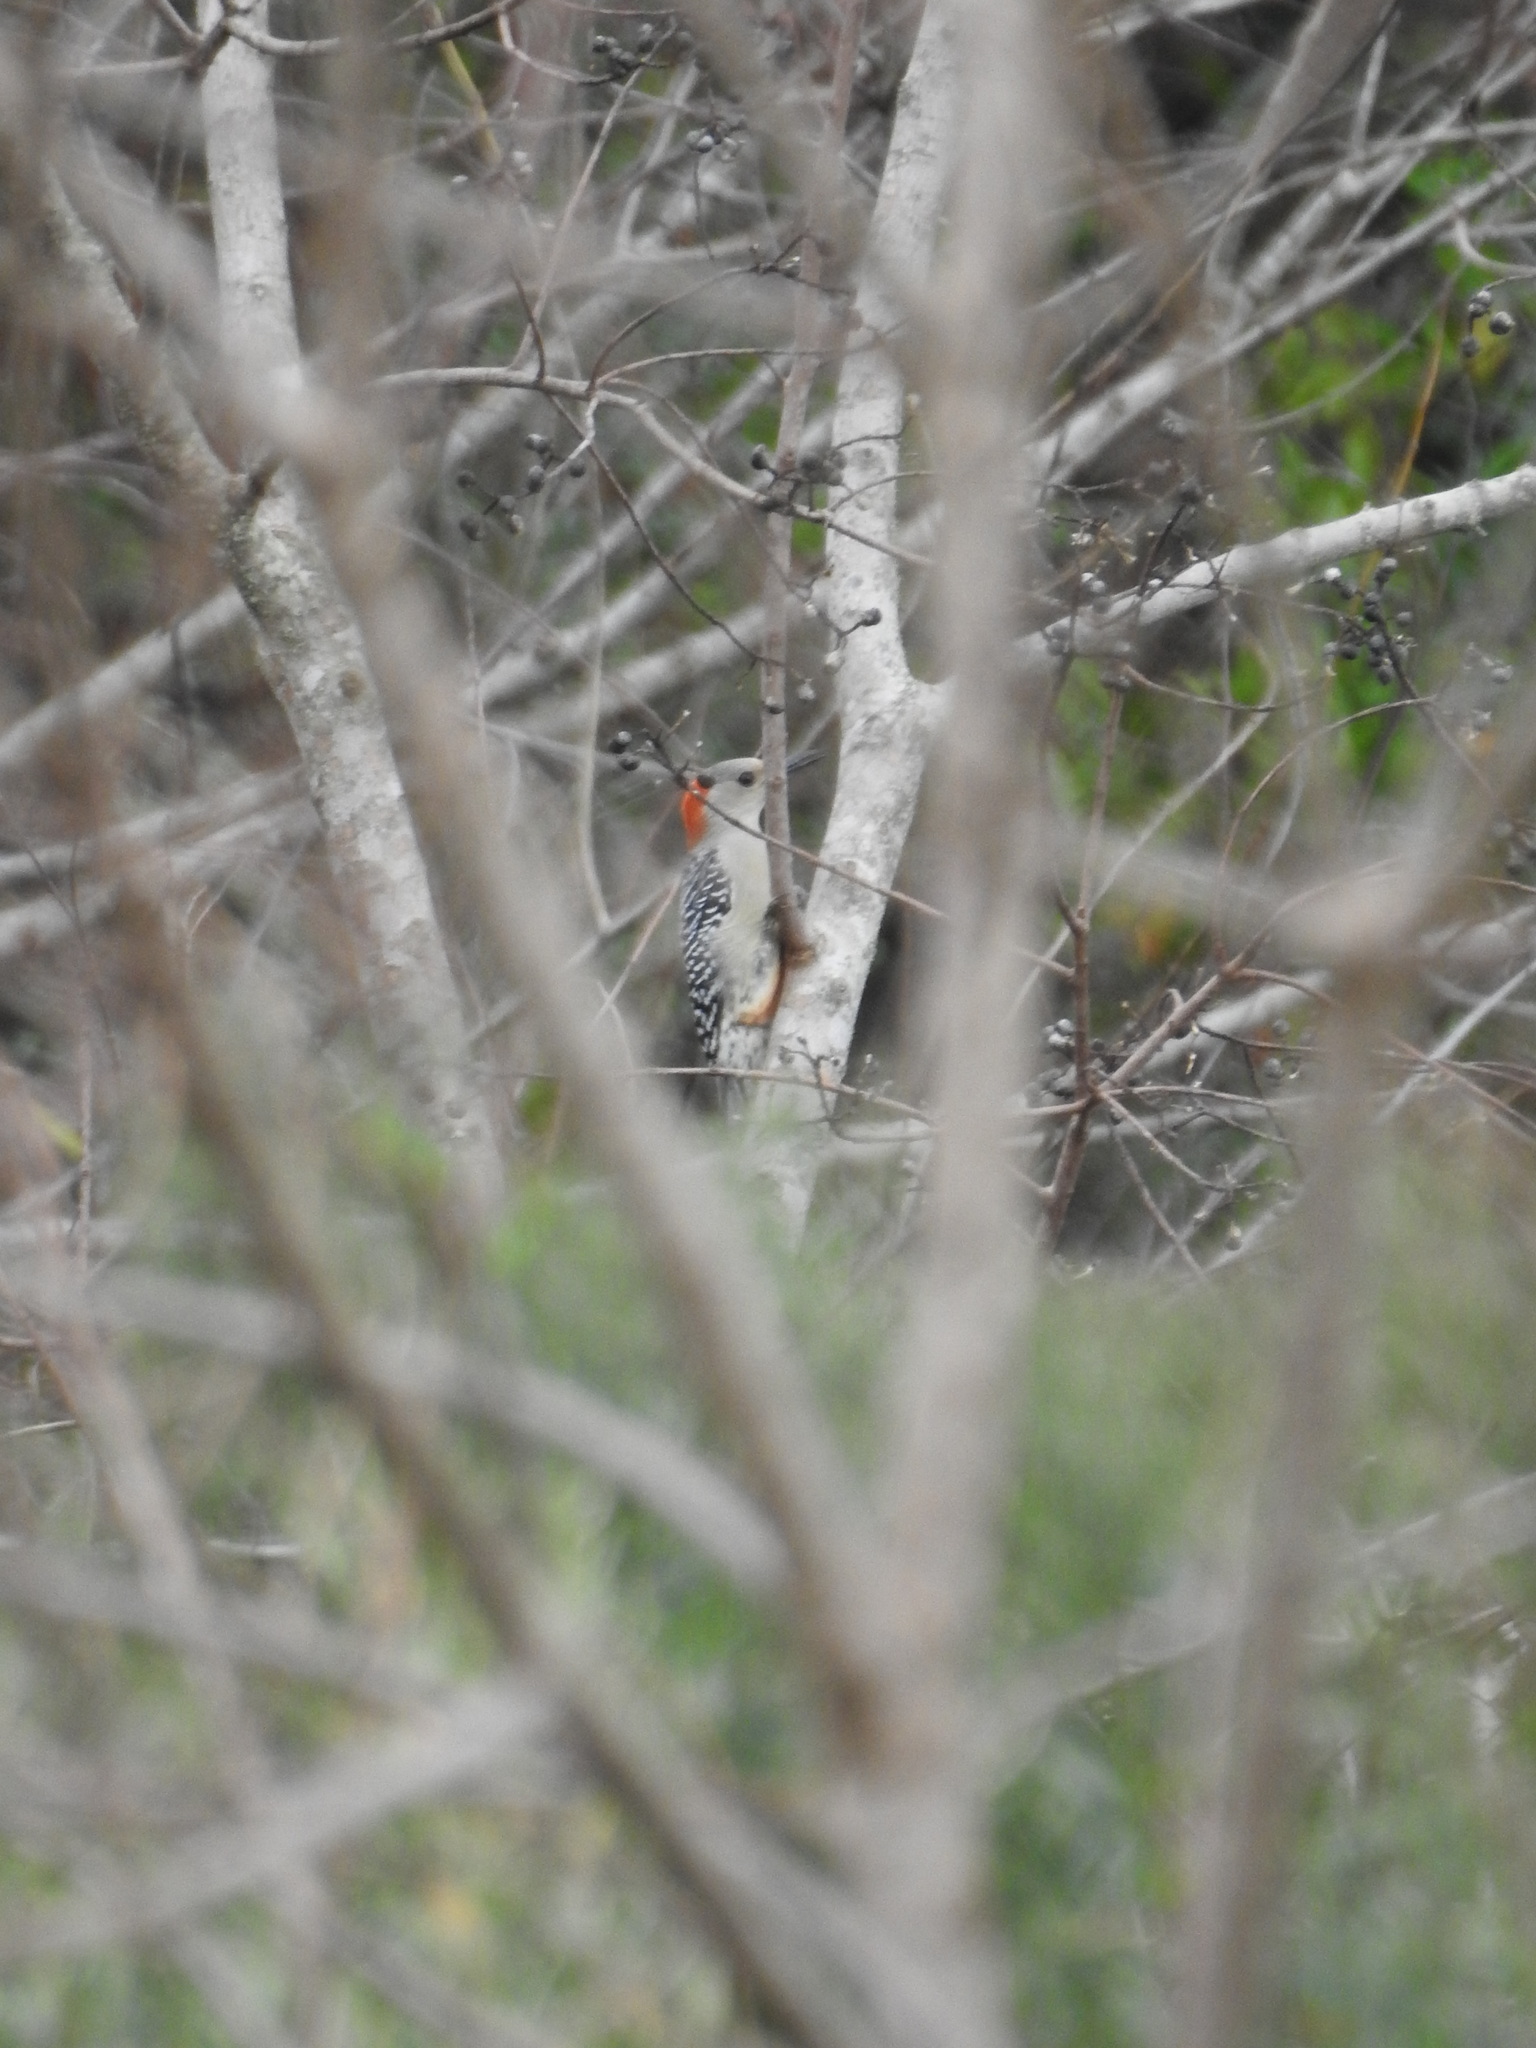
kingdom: Animalia
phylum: Chordata
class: Aves
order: Piciformes
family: Picidae
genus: Melanerpes
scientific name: Melanerpes carolinus
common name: Red-bellied woodpecker
